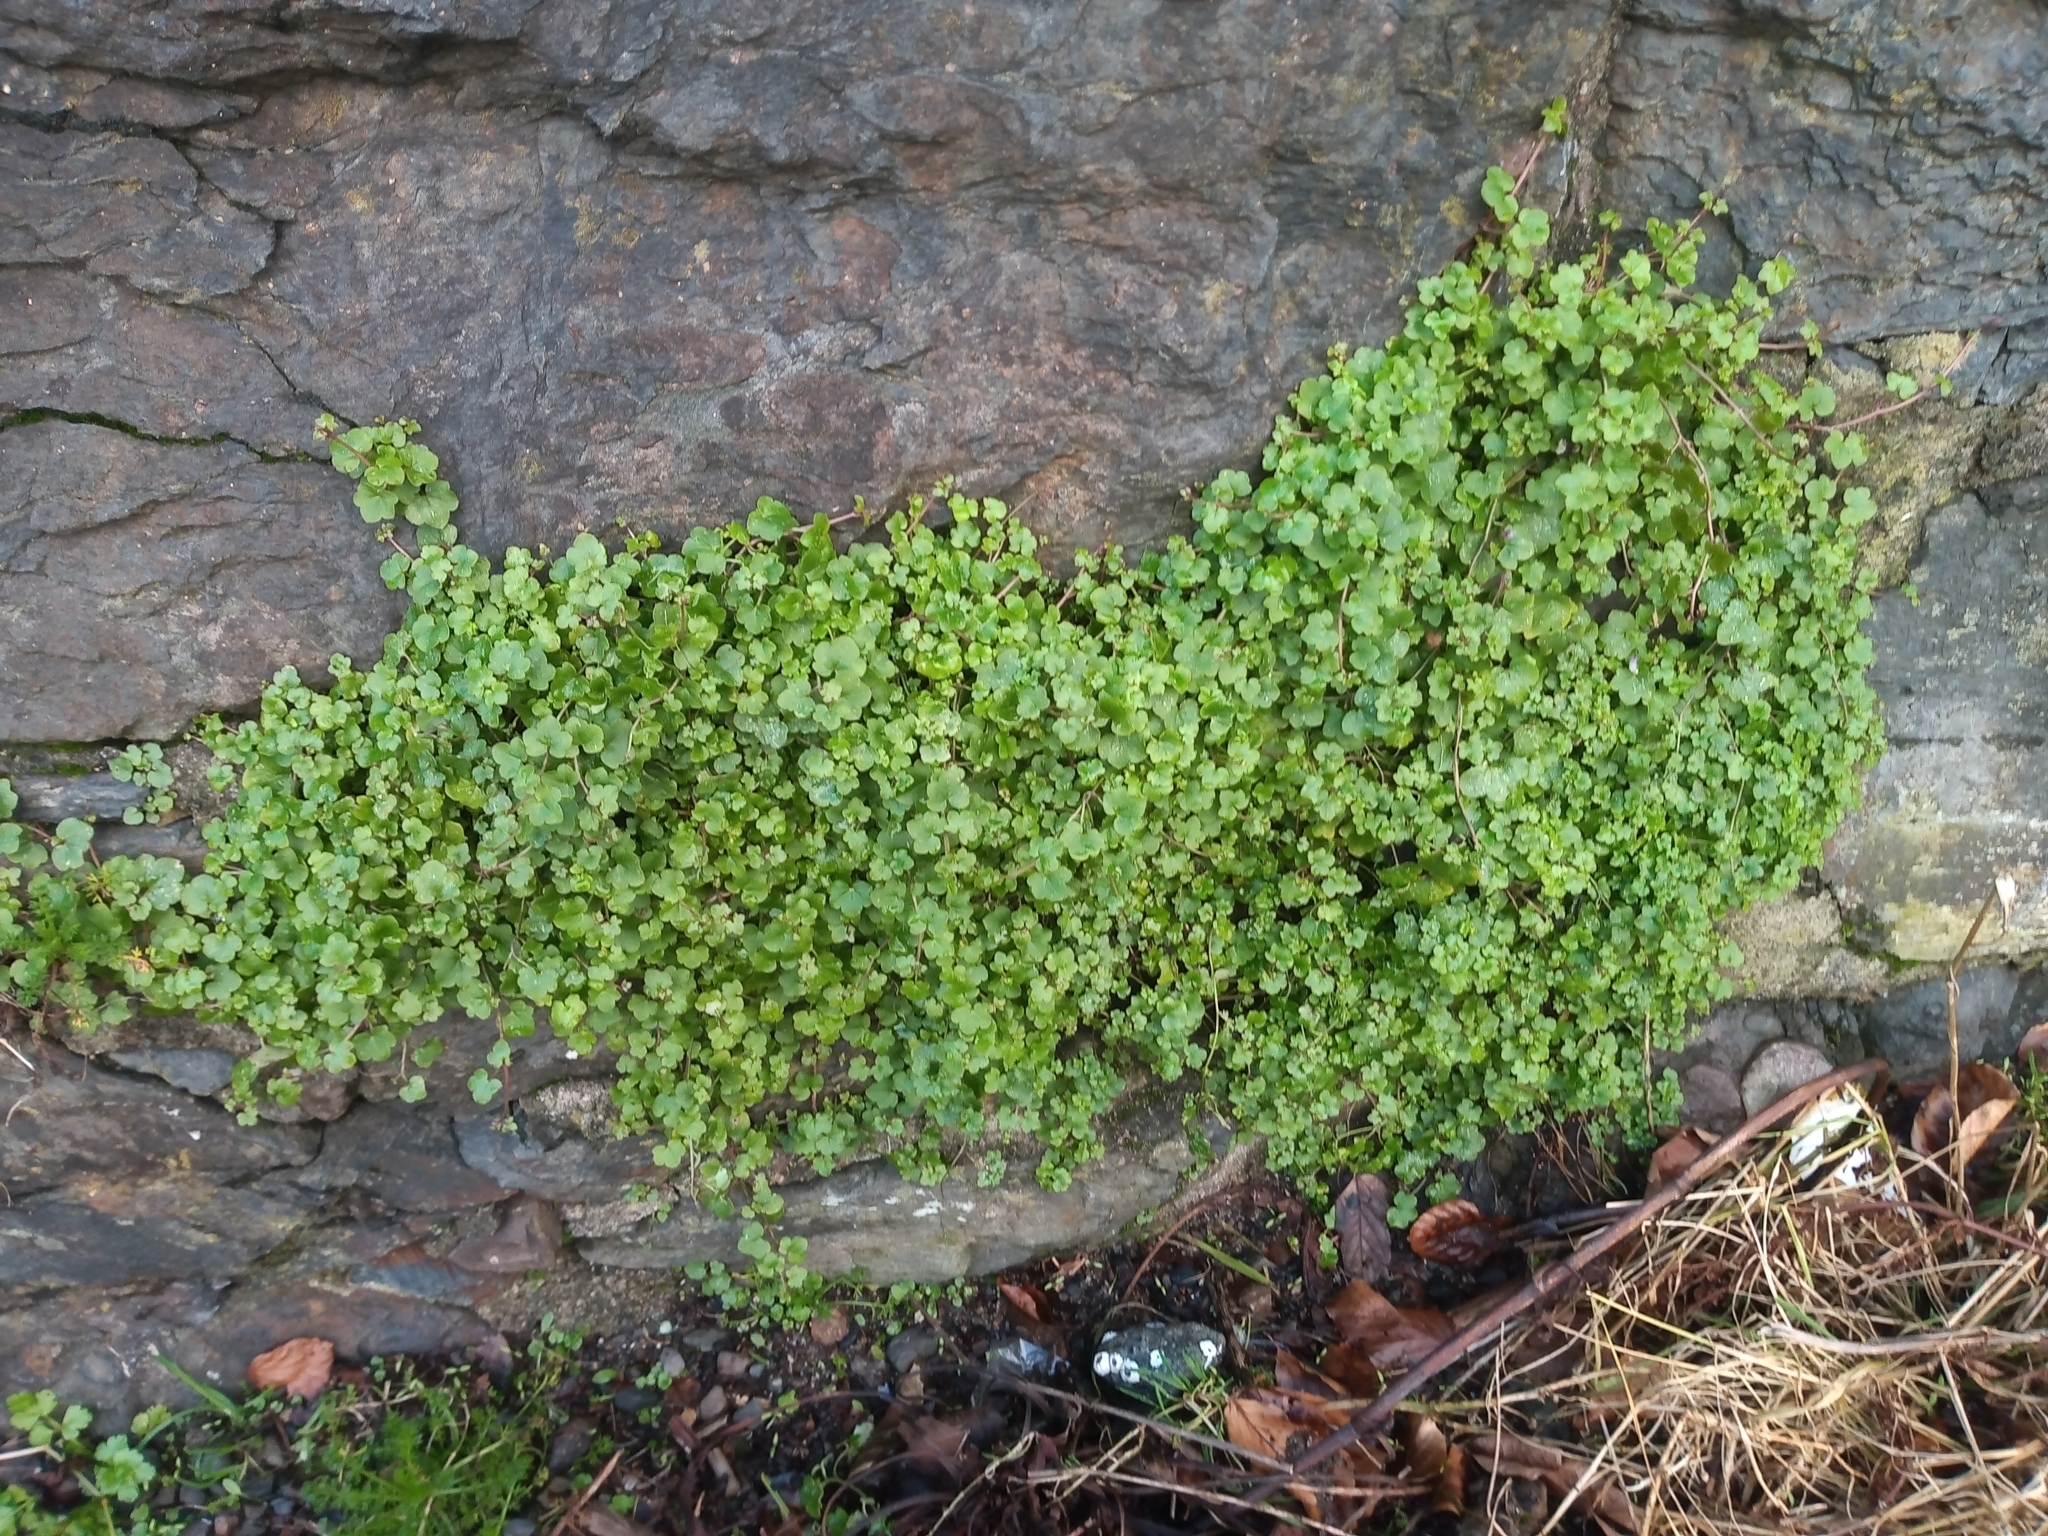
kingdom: Plantae
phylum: Tracheophyta
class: Magnoliopsida
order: Lamiales
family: Plantaginaceae
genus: Cymbalaria
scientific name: Cymbalaria muralis
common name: Ivy-leaved toadflax
